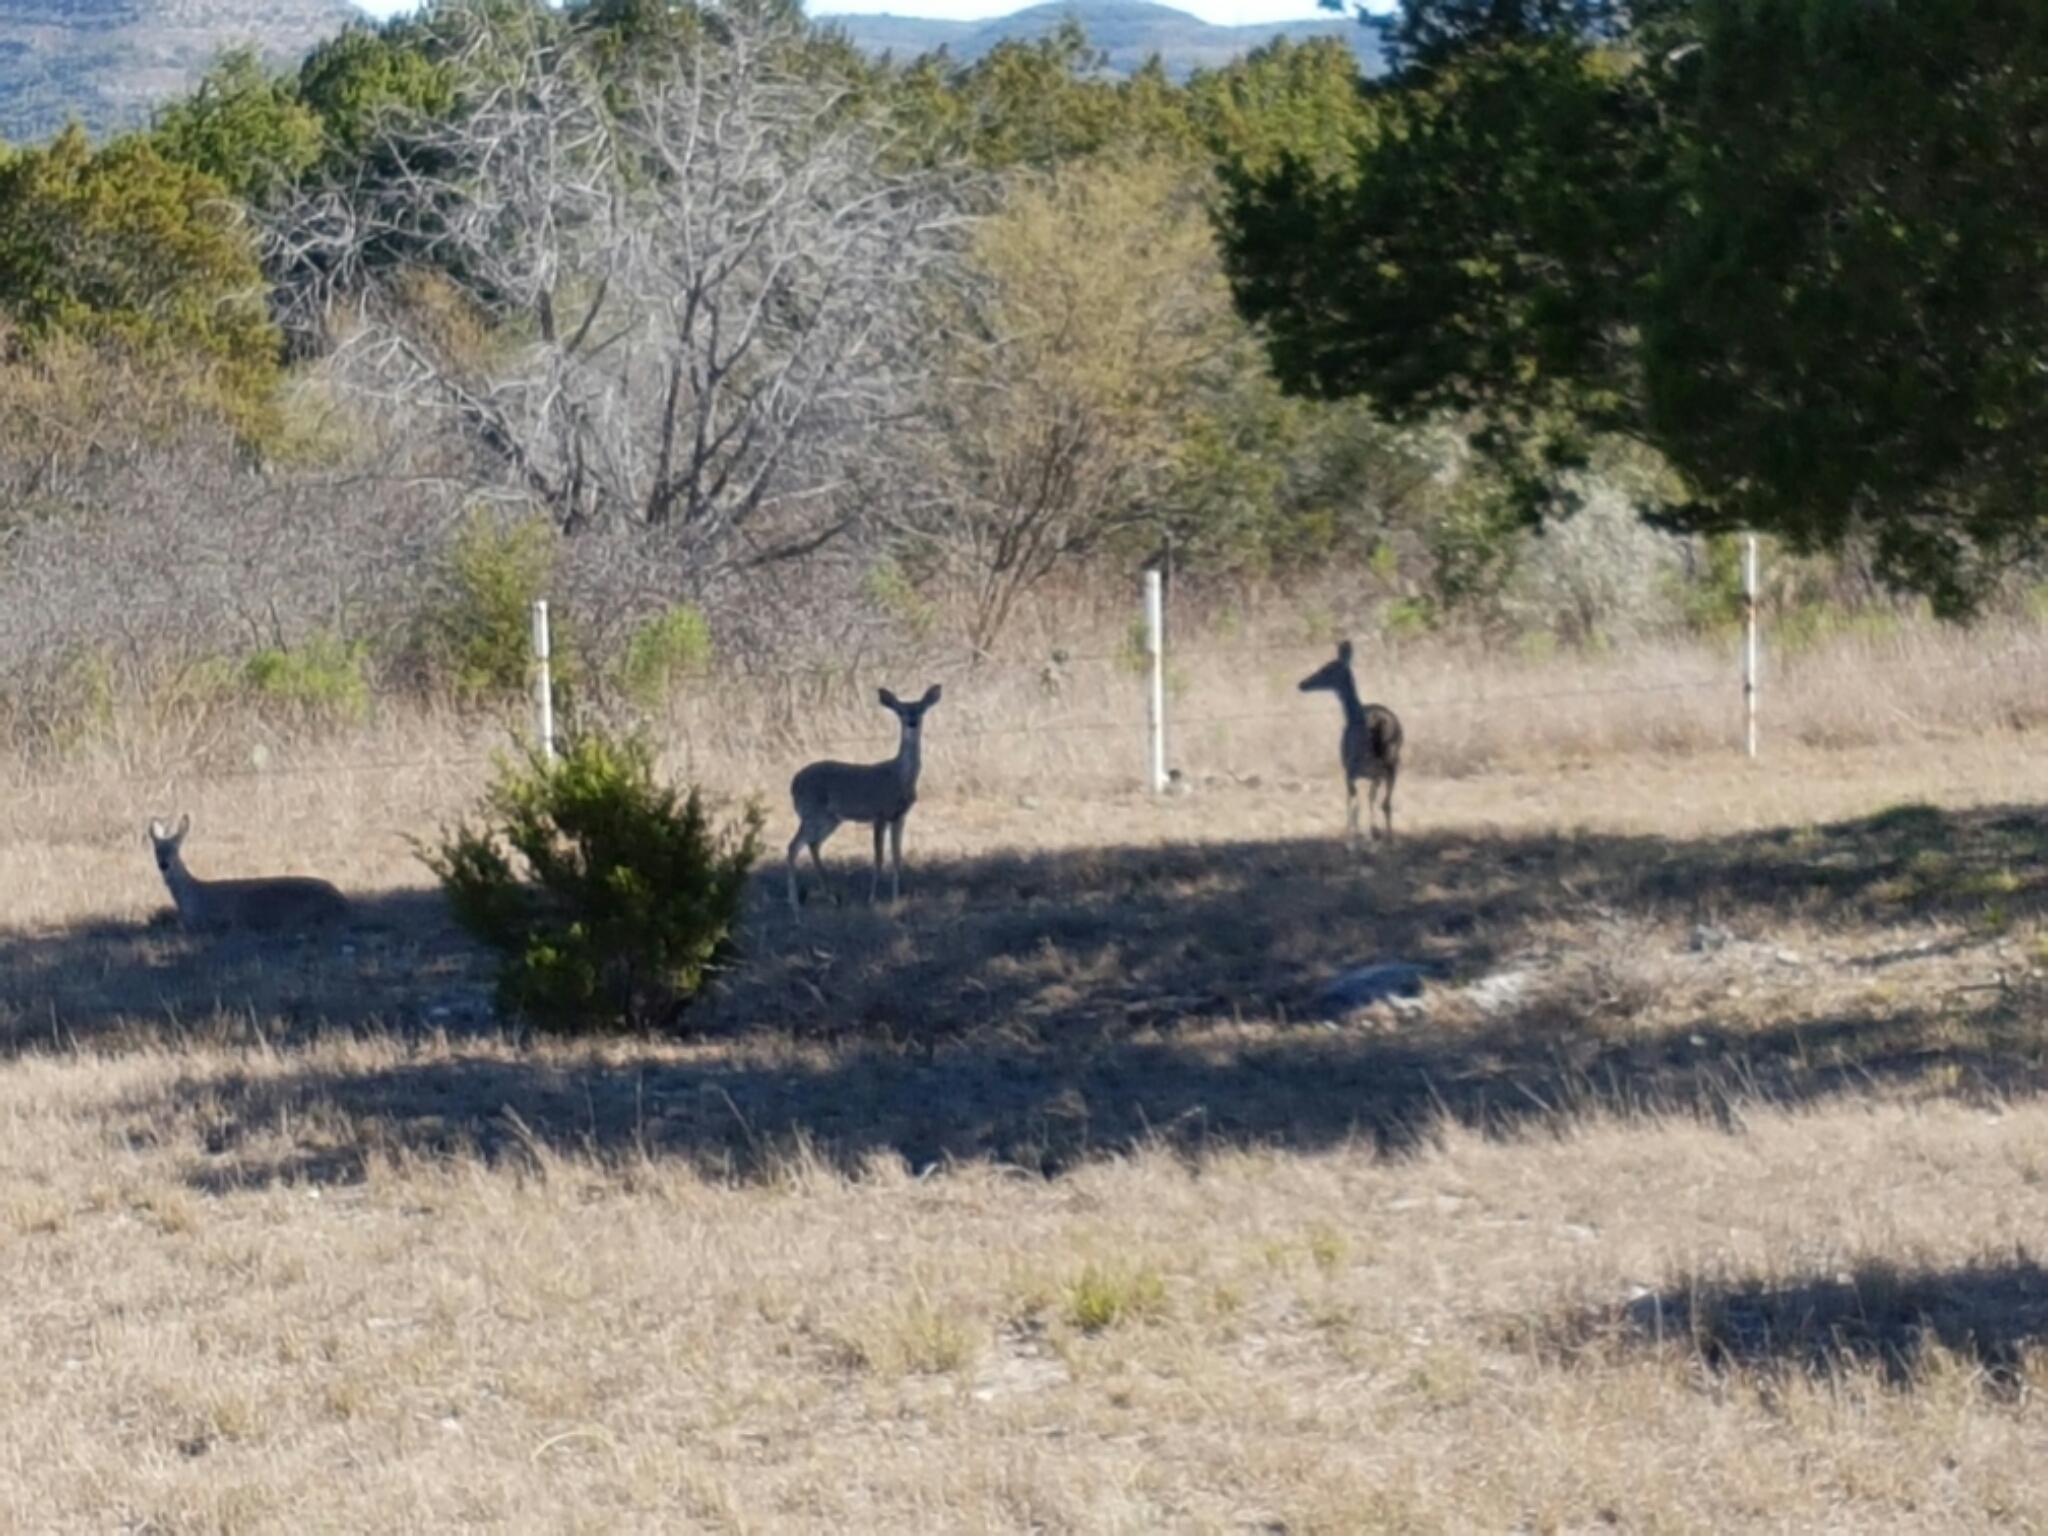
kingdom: Animalia
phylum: Chordata
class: Mammalia
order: Artiodactyla
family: Cervidae
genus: Odocoileus
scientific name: Odocoileus virginianus
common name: White-tailed deer
